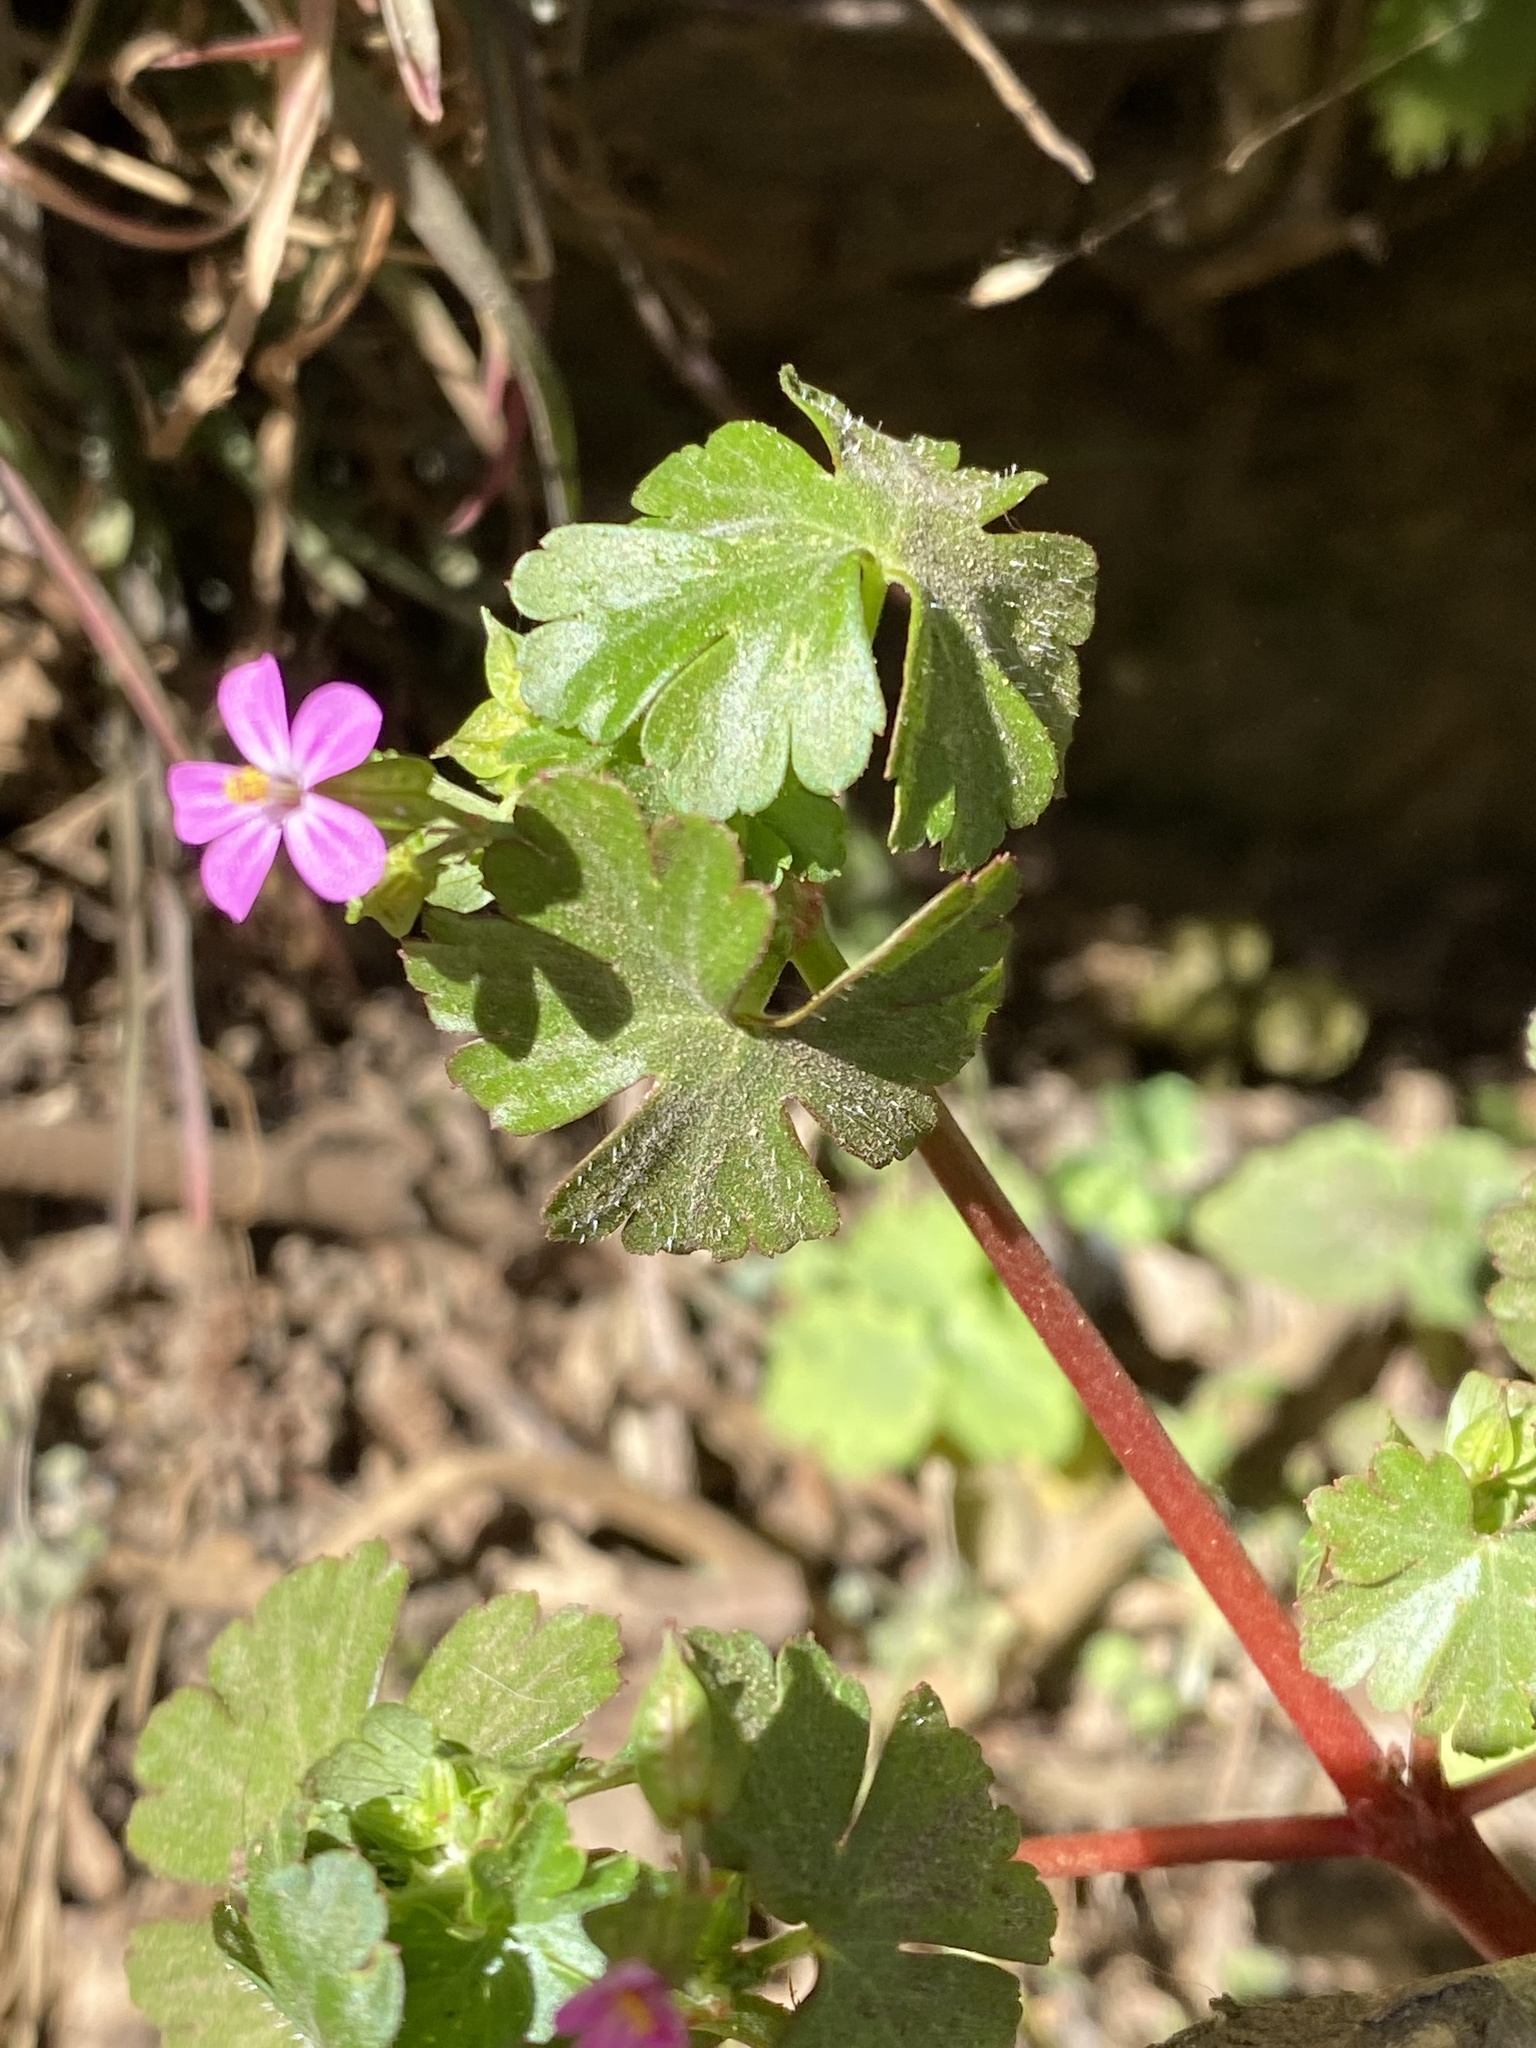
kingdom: Plantae
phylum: Tracheophyta
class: Magnoliopsida
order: Geraniales
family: Geraniaceae
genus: Geranium
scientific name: Geranium lucidum
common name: Shining crane's-bill
